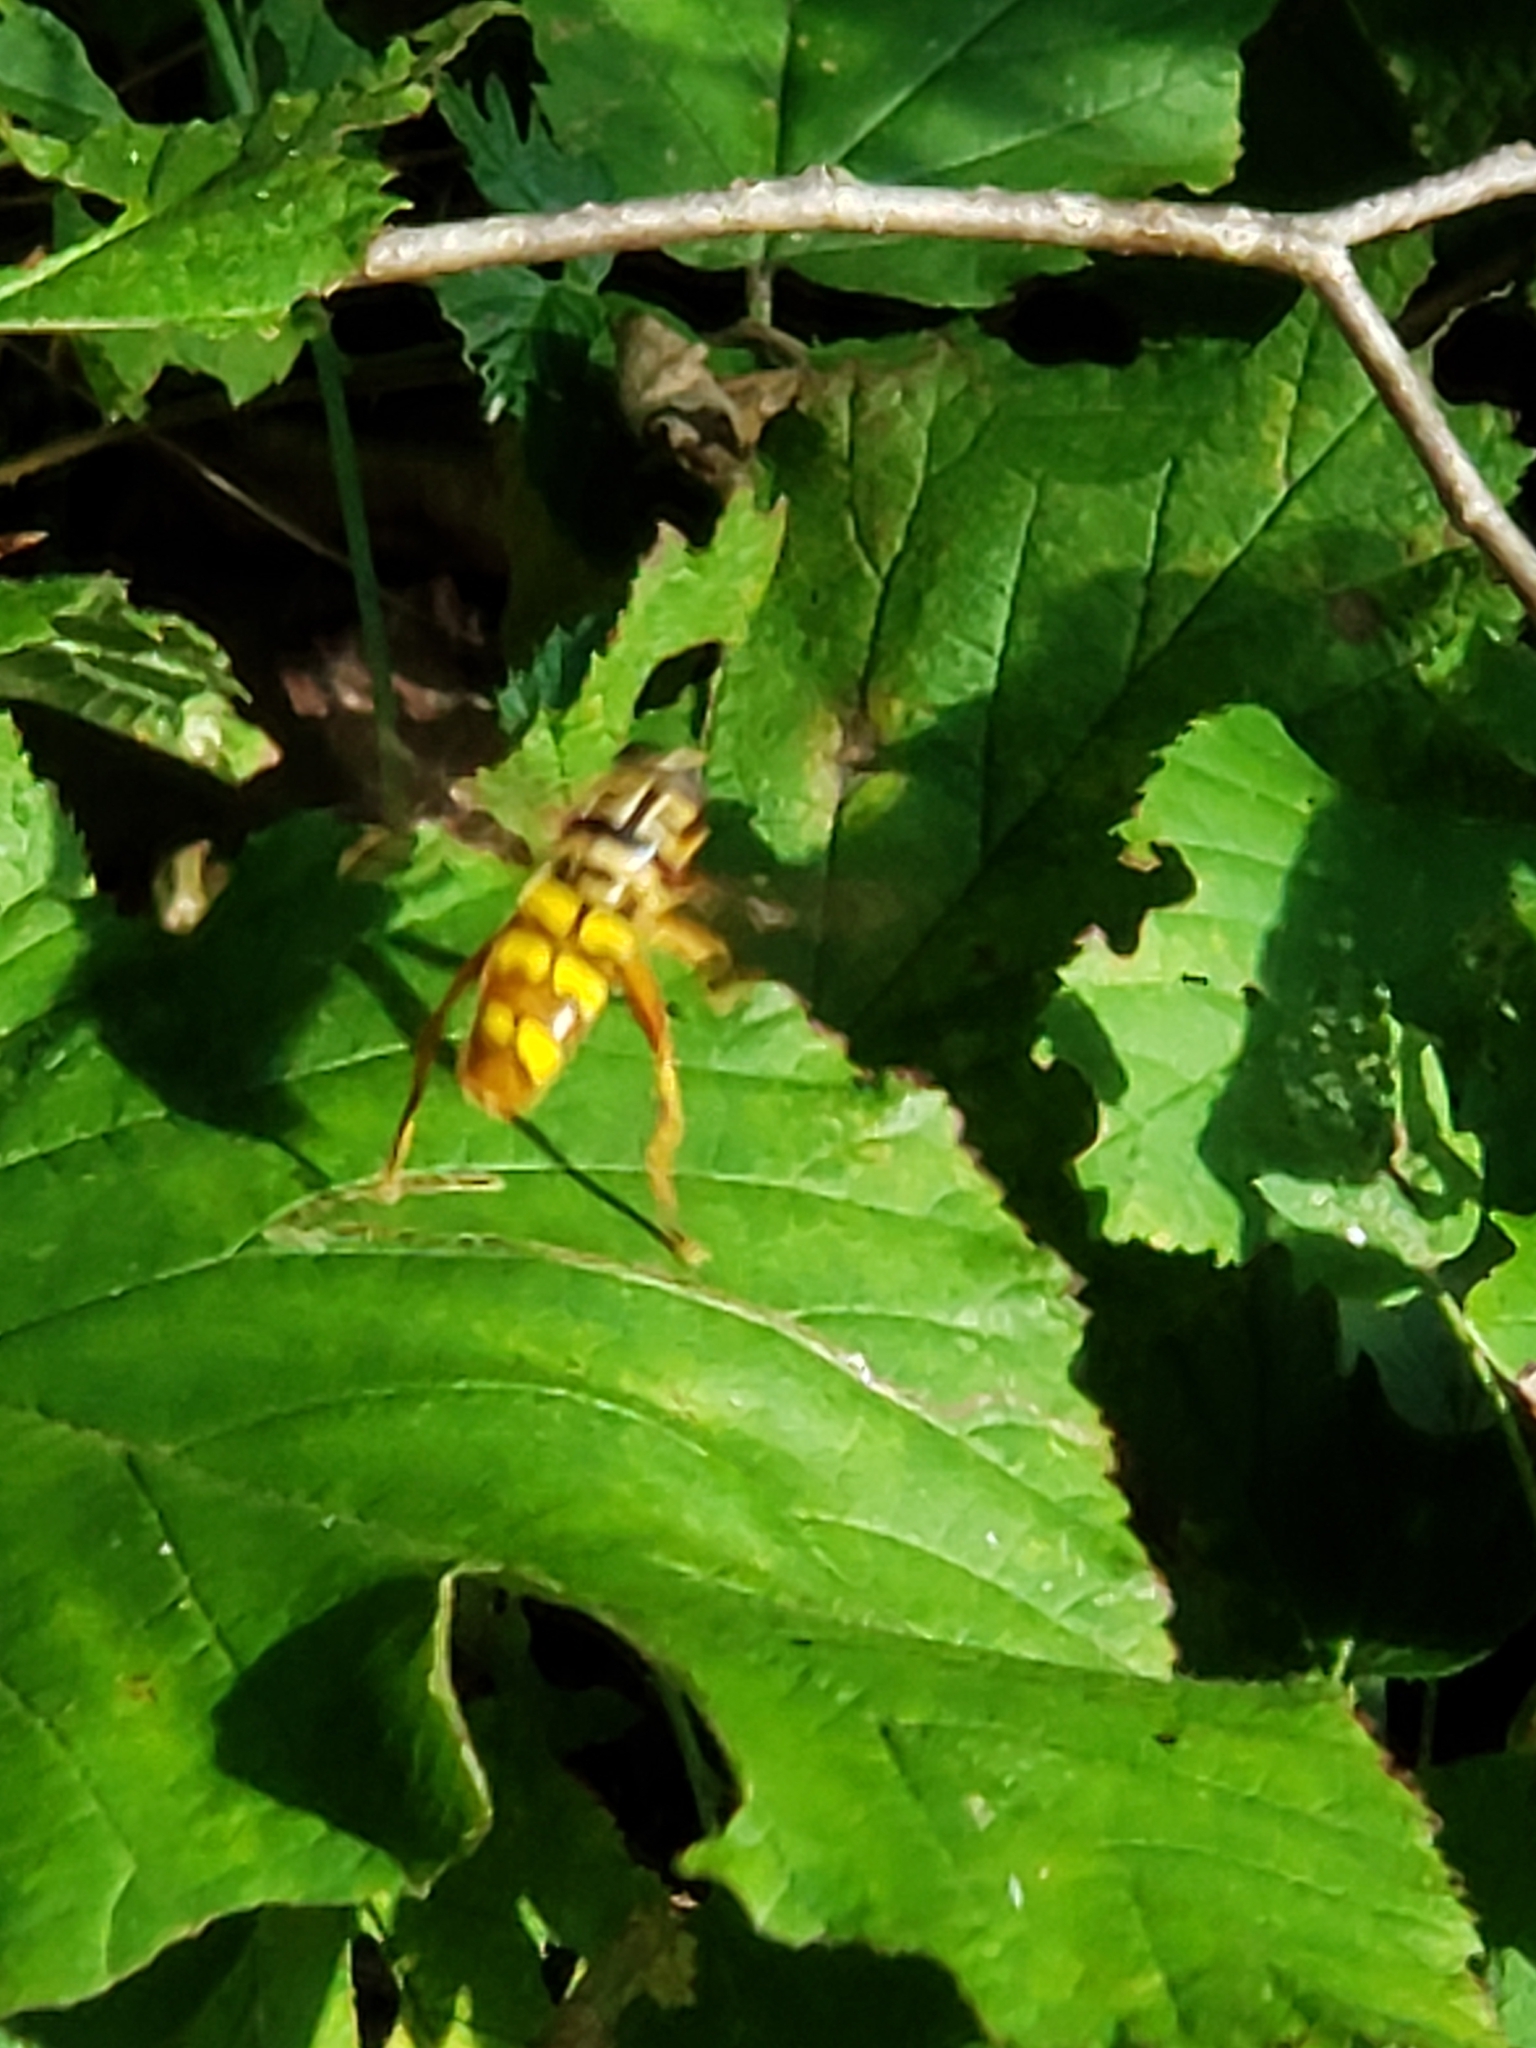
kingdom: Animalia
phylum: Arthropoda
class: Insecta
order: Diptera
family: Syrphidae
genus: Milesia
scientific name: Milesia virginiensis
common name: Virginia giant
